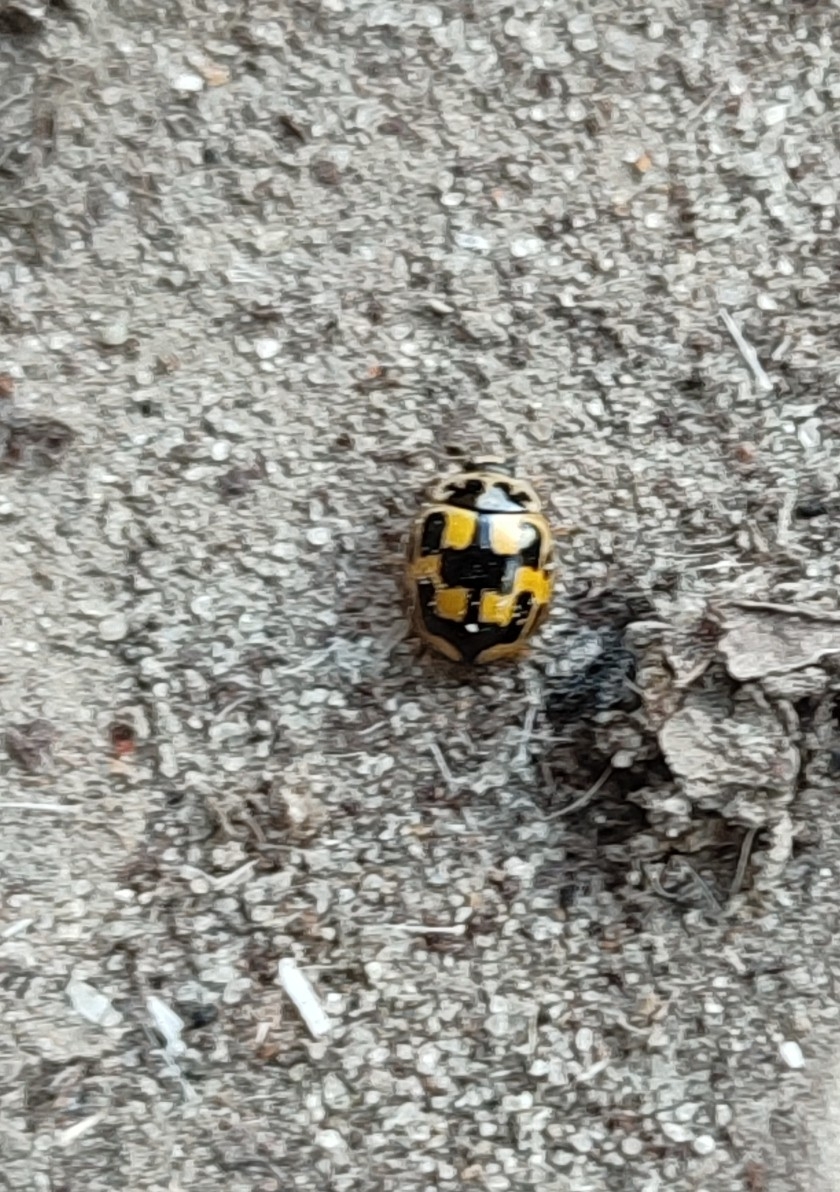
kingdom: Animalia
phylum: Arthropoda
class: Insecta
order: Coleoptera
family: Coccinellidae
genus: Propylaea
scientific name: Propylaea quatuordecimpunctata
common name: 14-spotted ladybird beetle
